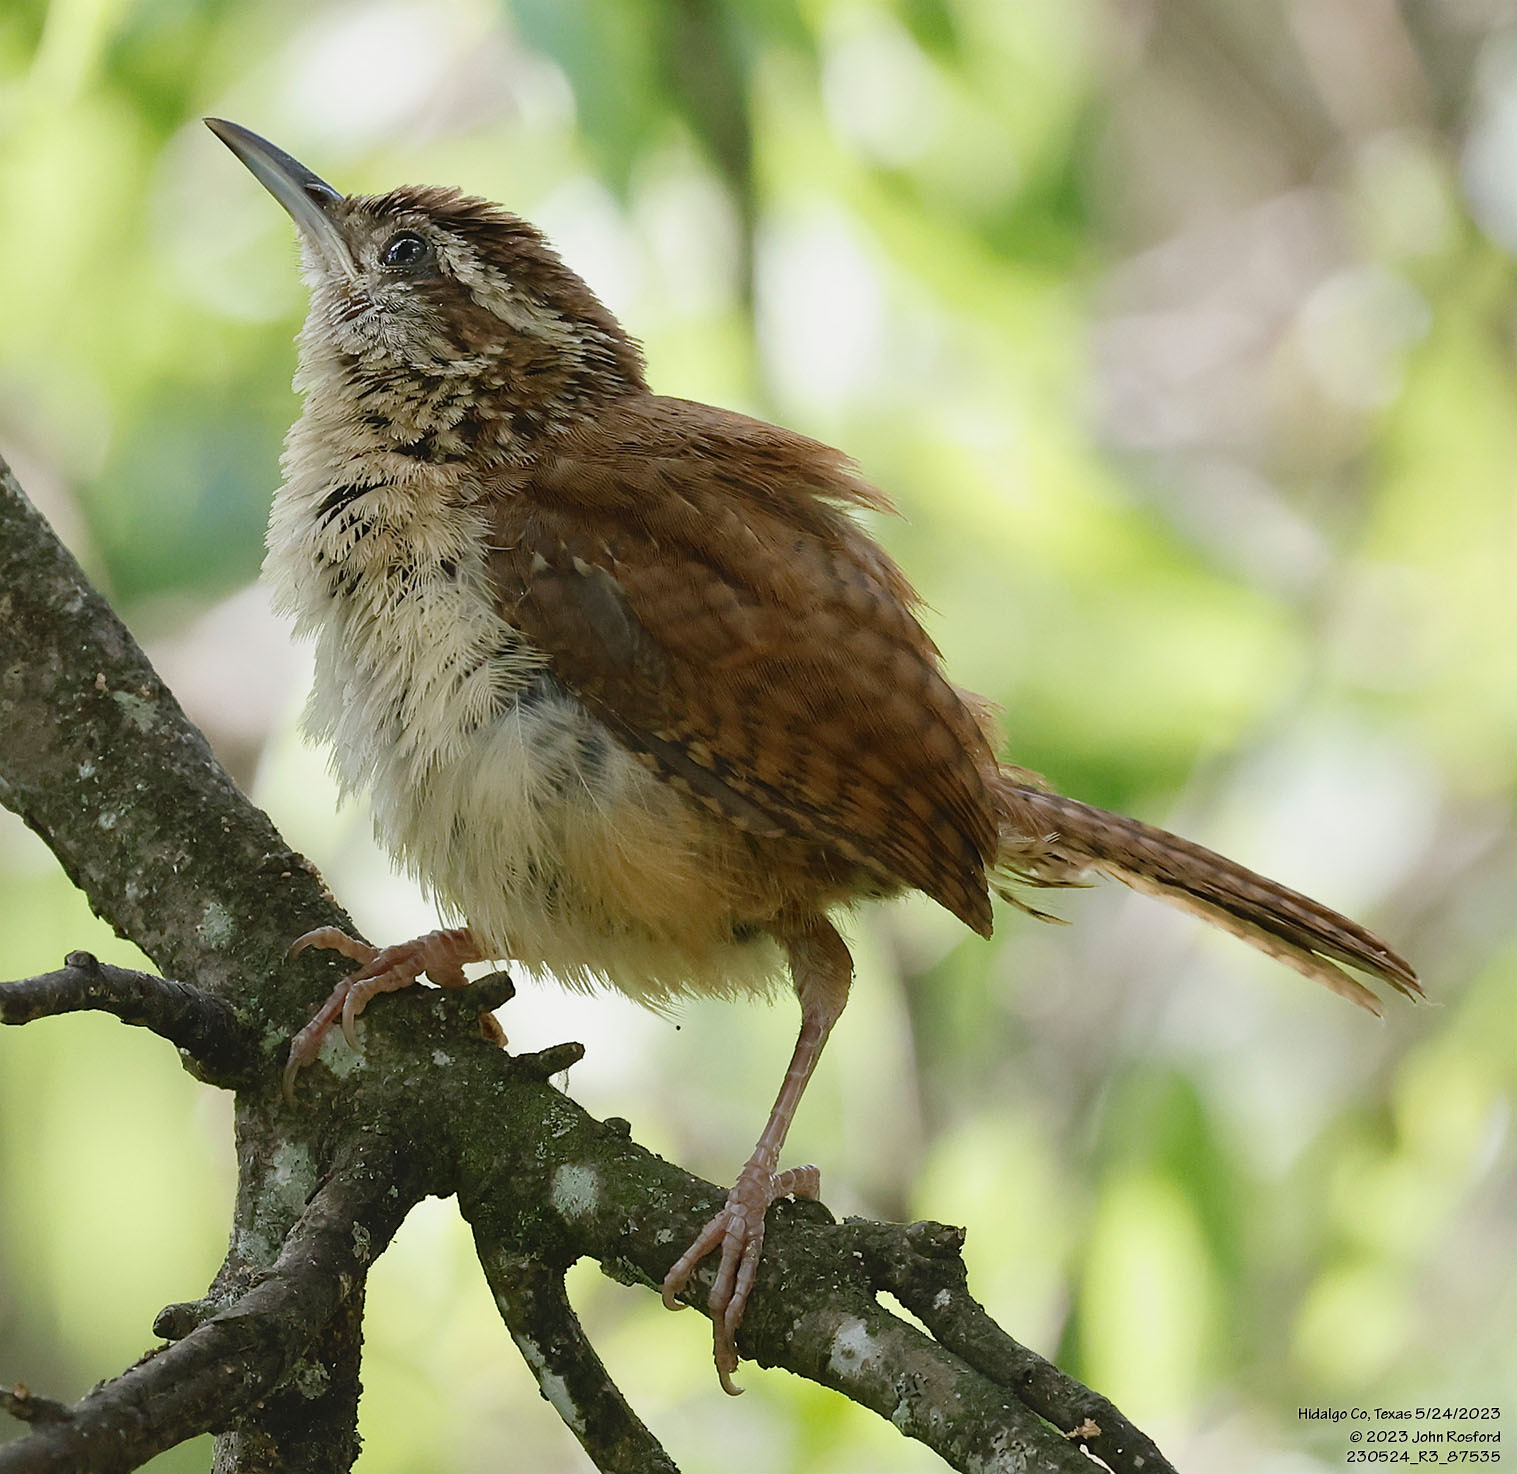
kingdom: Animalia
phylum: Chordata
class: Aves
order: Passeriformes
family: Troglodytidae
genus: Thryothorus
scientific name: Thryothorus ludovicianus
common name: Carolina wren
